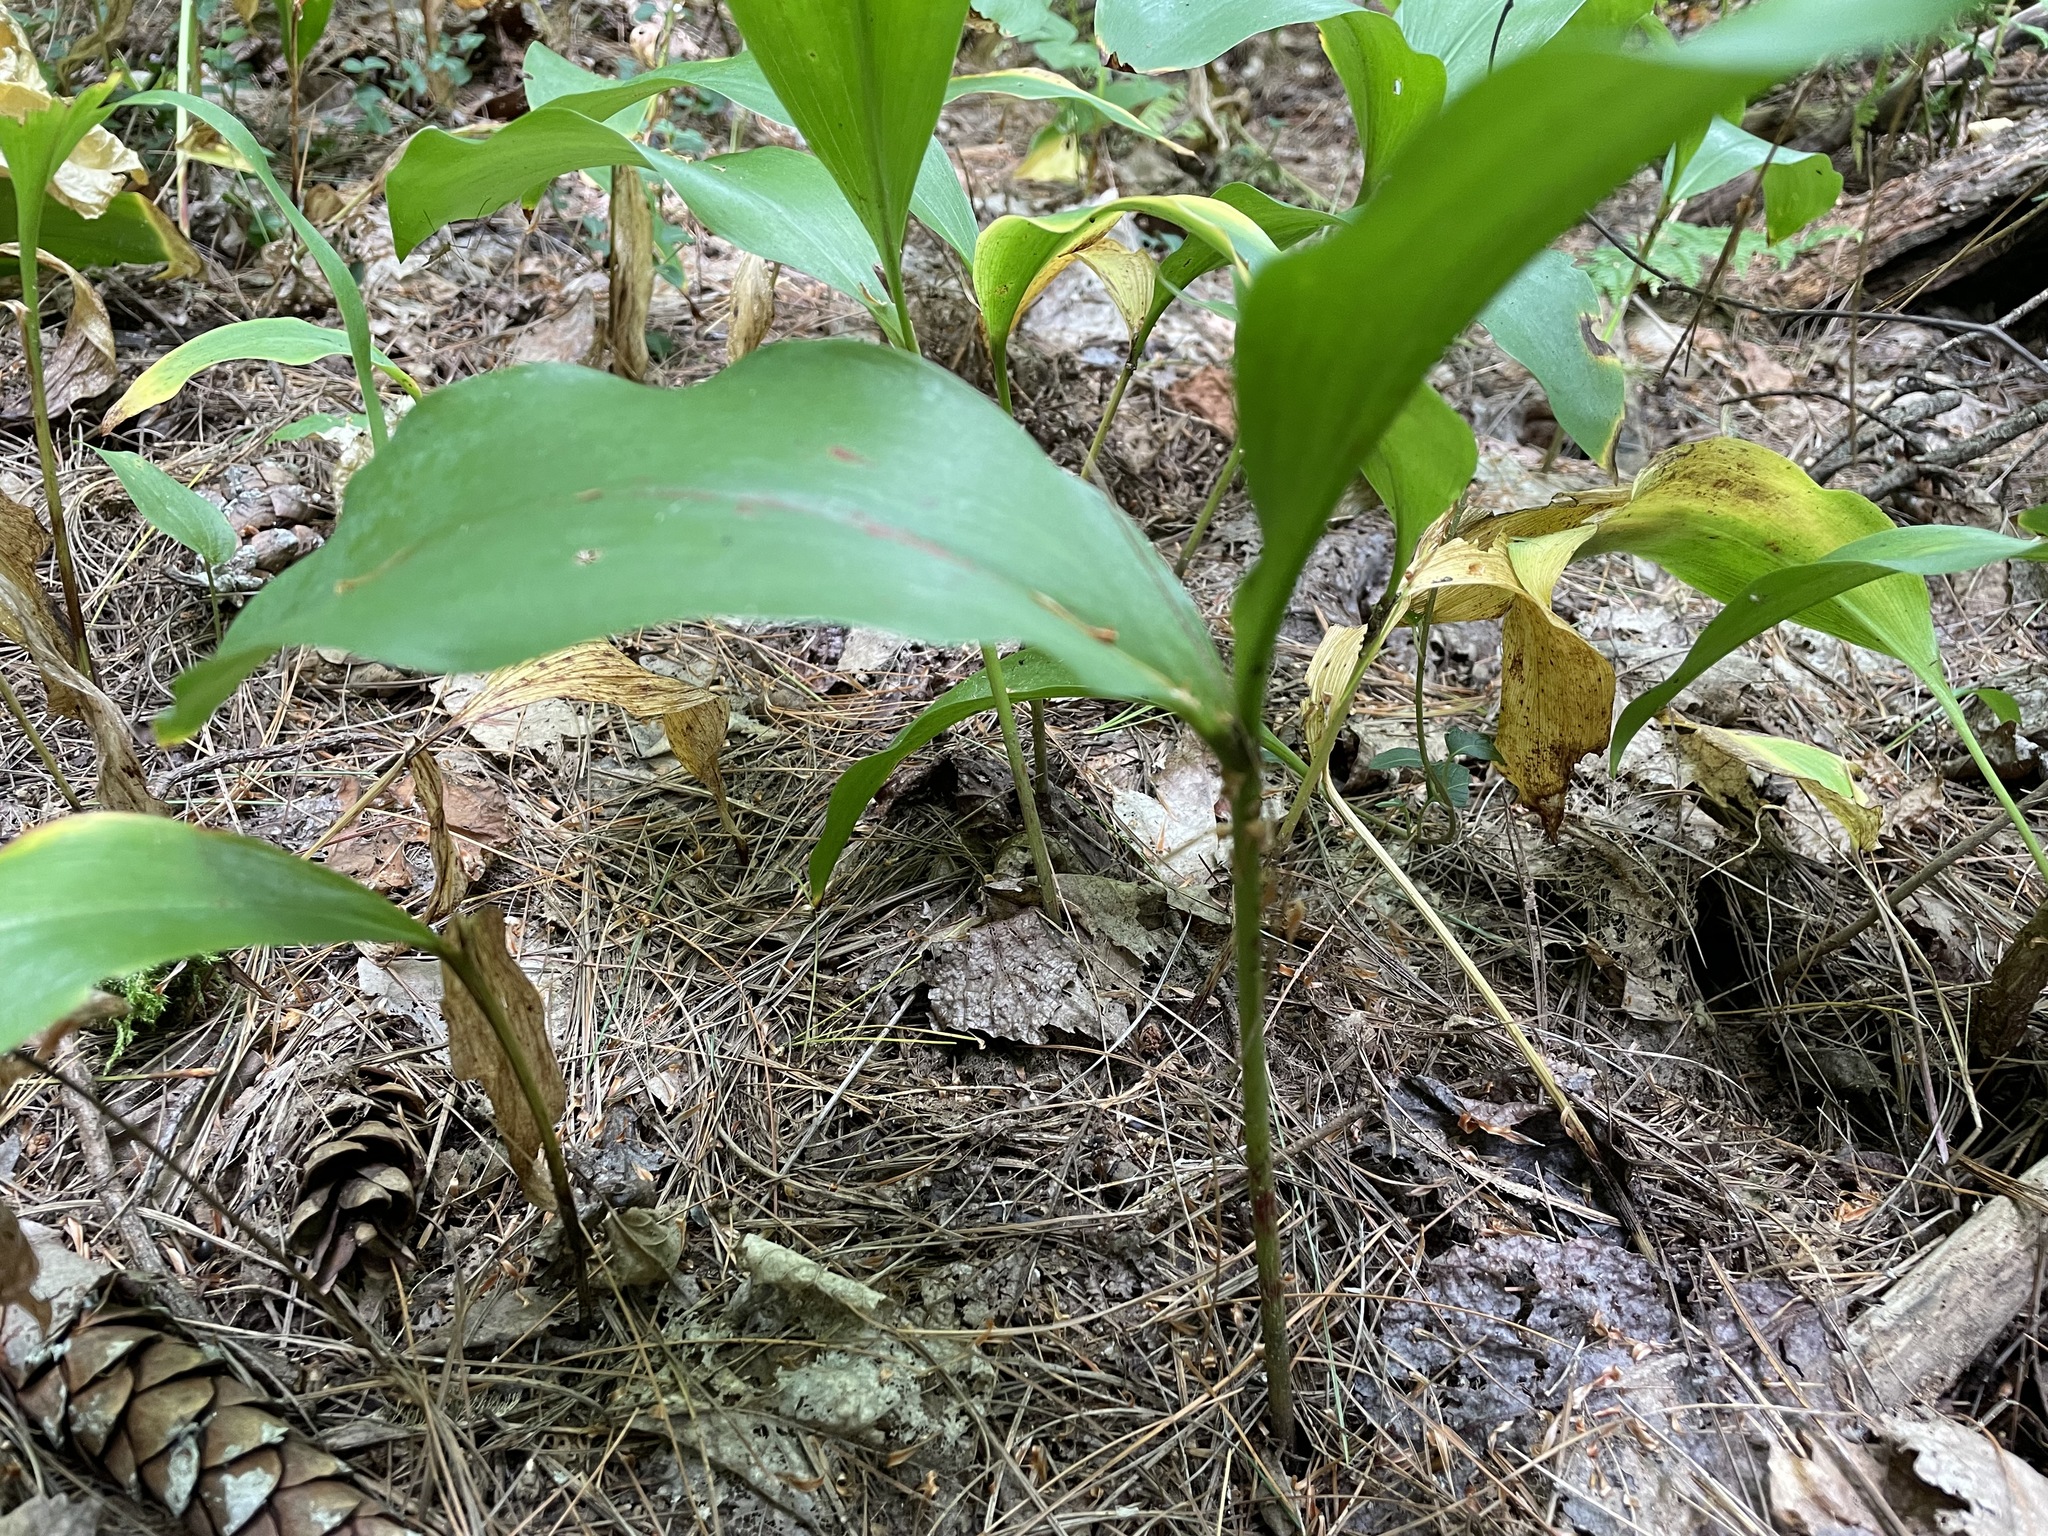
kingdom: Plantae
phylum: Tracheophyta
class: Liliopsida
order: Asparagales
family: Asparagaceae
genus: Convallaria
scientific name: Convallaria majalis
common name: Lily-of-the-valley
